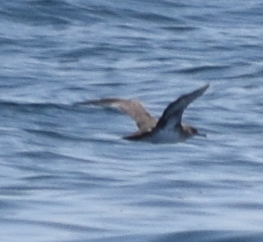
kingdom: Animalia
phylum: Chordata
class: Aves
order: Procellariiformes
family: Procellariidae
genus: Puffinus
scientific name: Puffinus opisthomelas
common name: Black-vented shearwater
